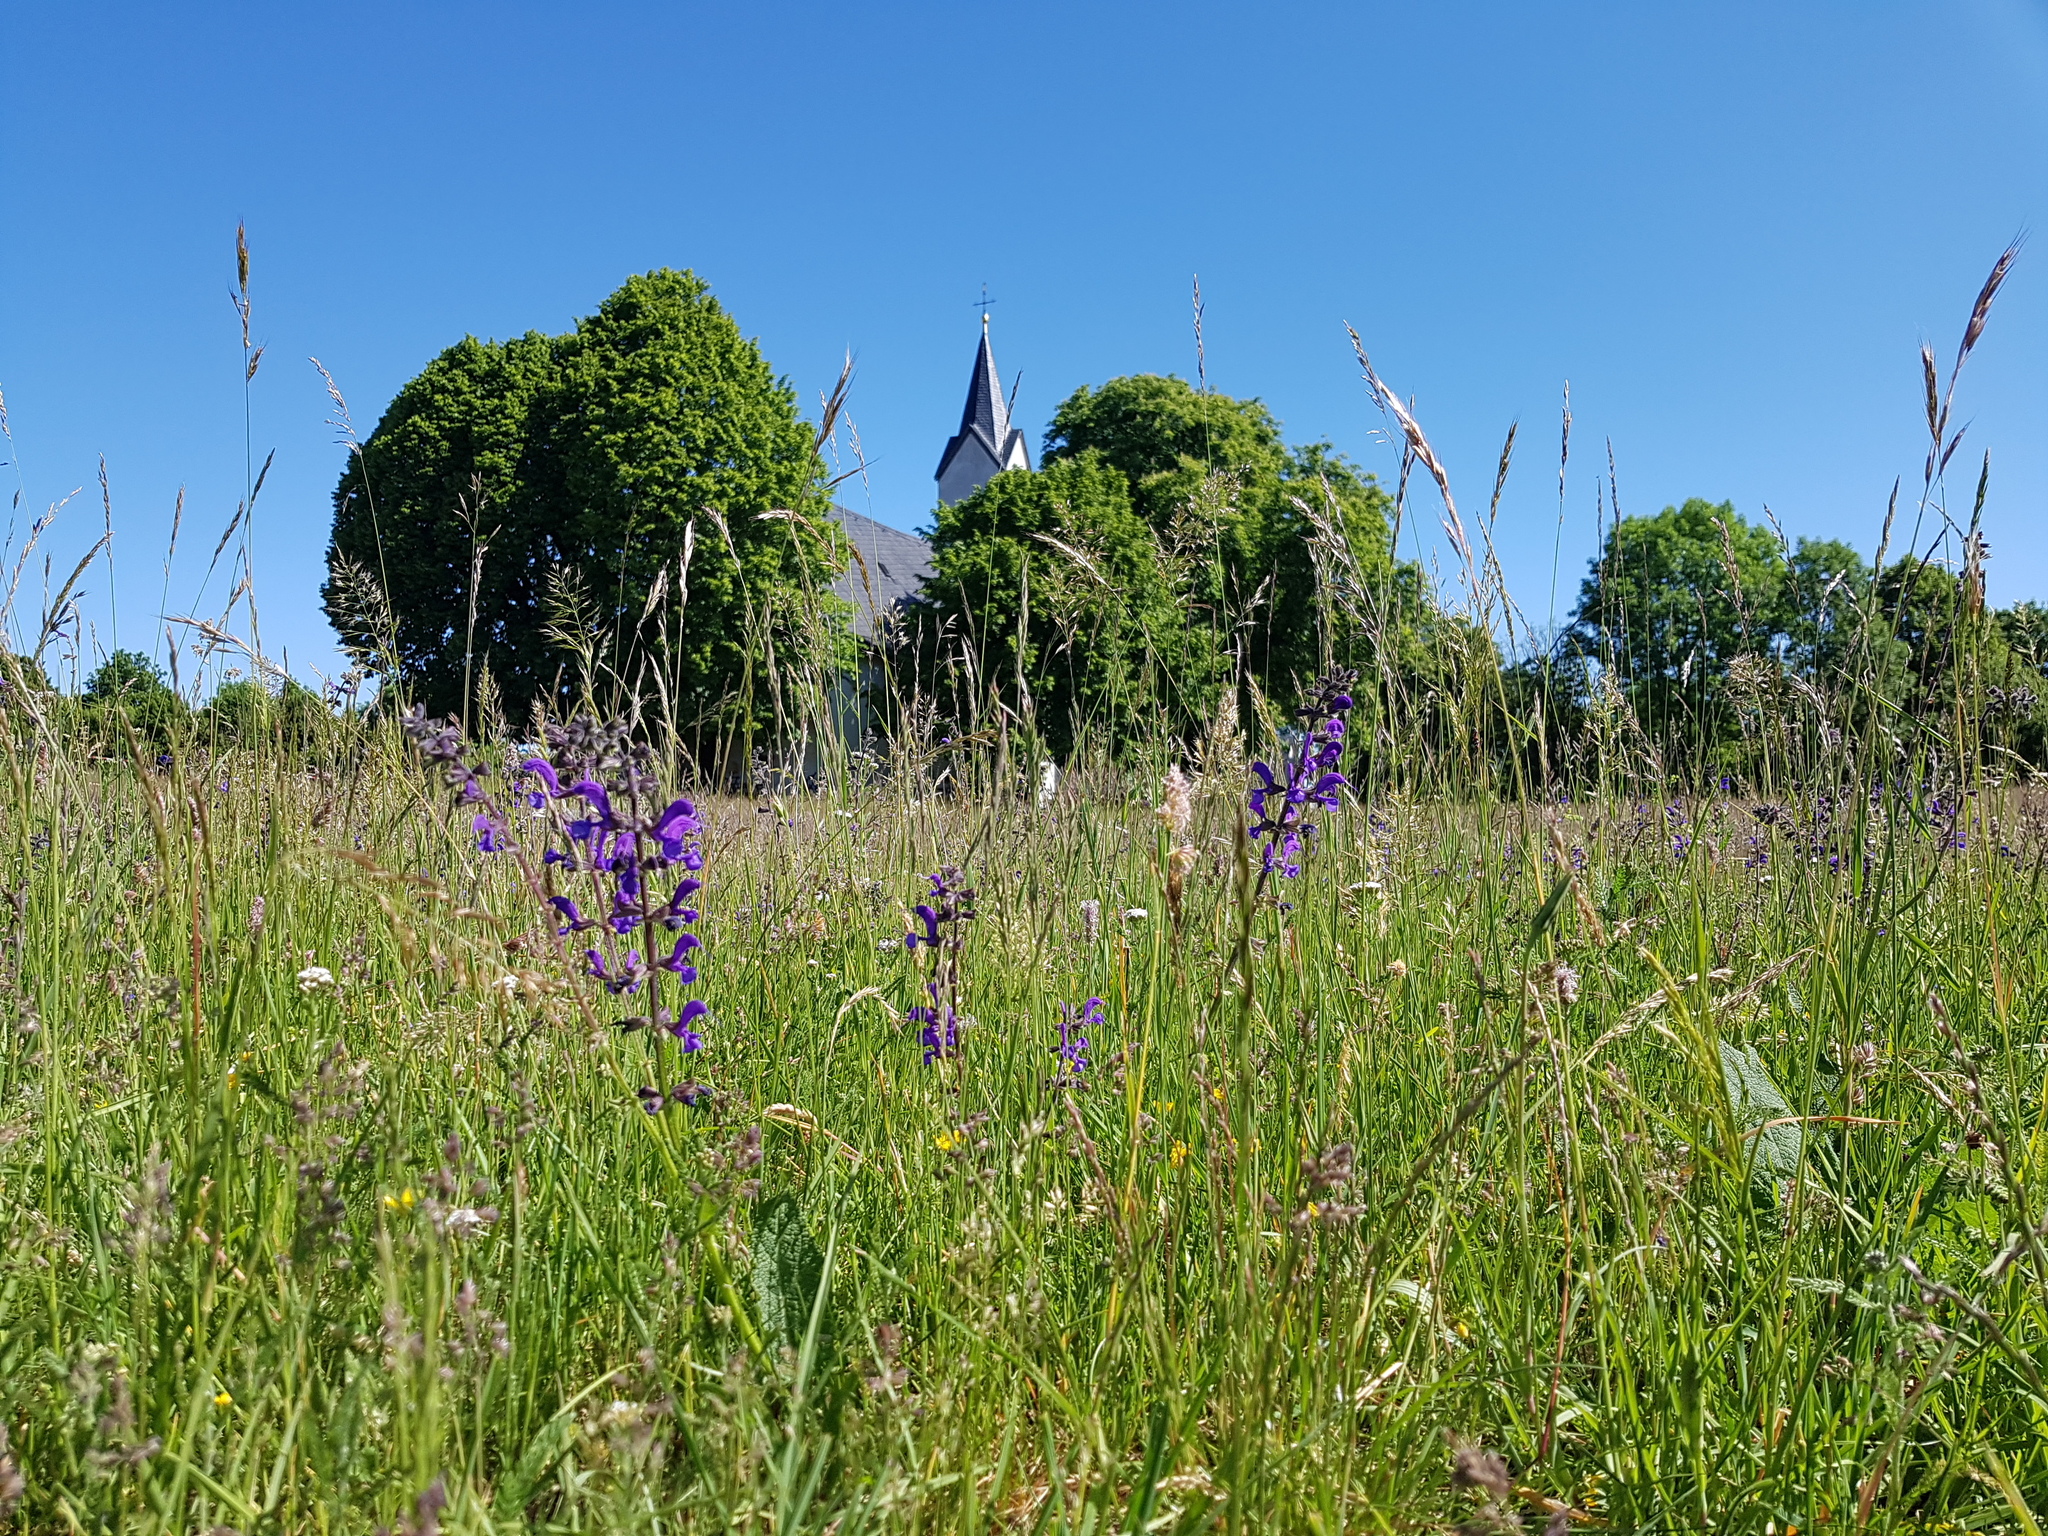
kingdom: Plantae
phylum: Tracheophyta
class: Magnoliopsida
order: Lamiales
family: Lamiaceae
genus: Salvia
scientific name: Salvia pratensis
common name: Meadow sage
